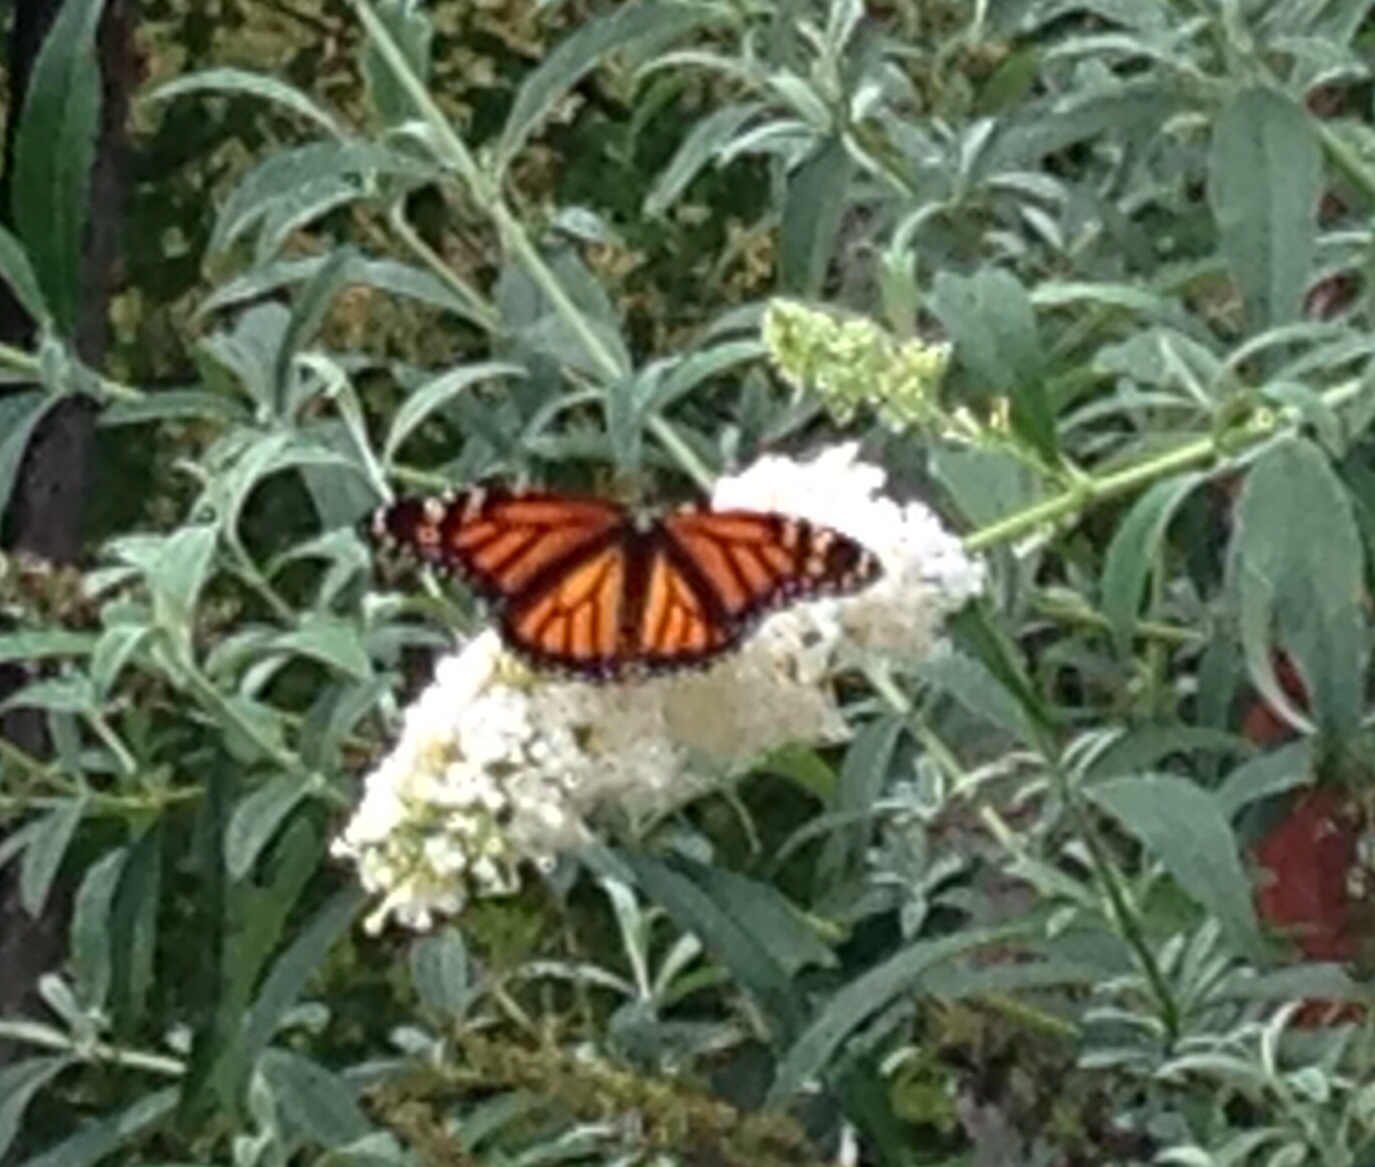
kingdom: Animalia
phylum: Arthropoda
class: Insecta
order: Lepidoptera
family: Nymphalidae
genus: Danaus
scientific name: Danaus plexippus
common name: Monarch
